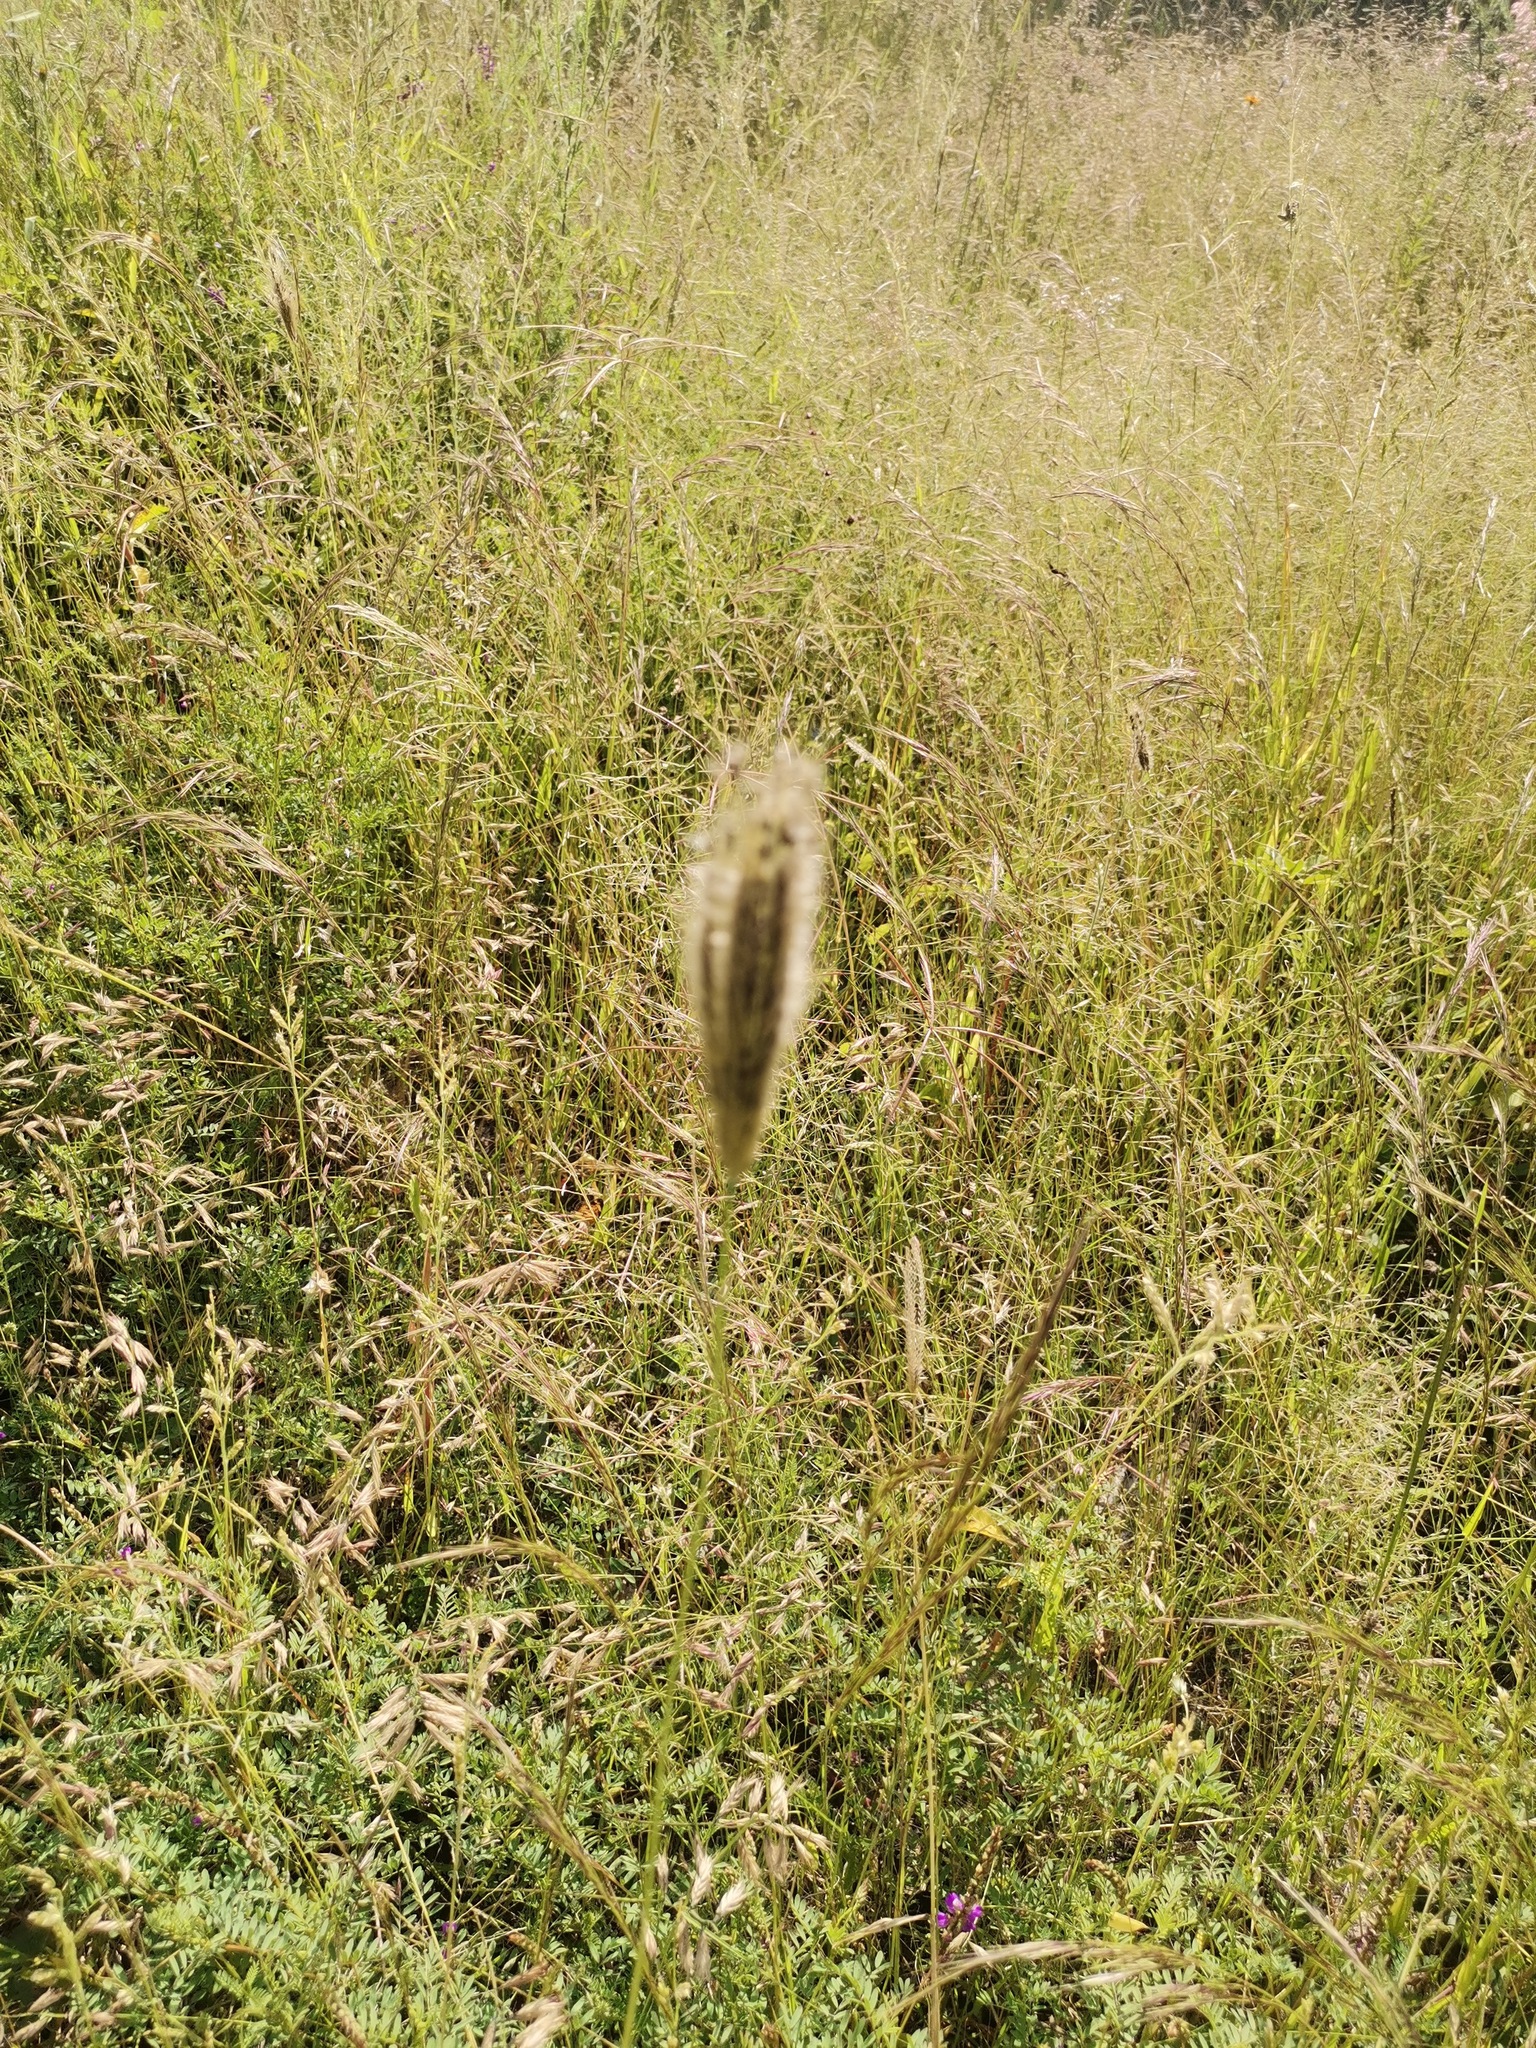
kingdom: Plantae
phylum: Tracheophyta
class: Liliopsida
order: Poales
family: Poaceae
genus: Chloris
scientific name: Chloris virgata
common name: Feathery rhodes-grass
